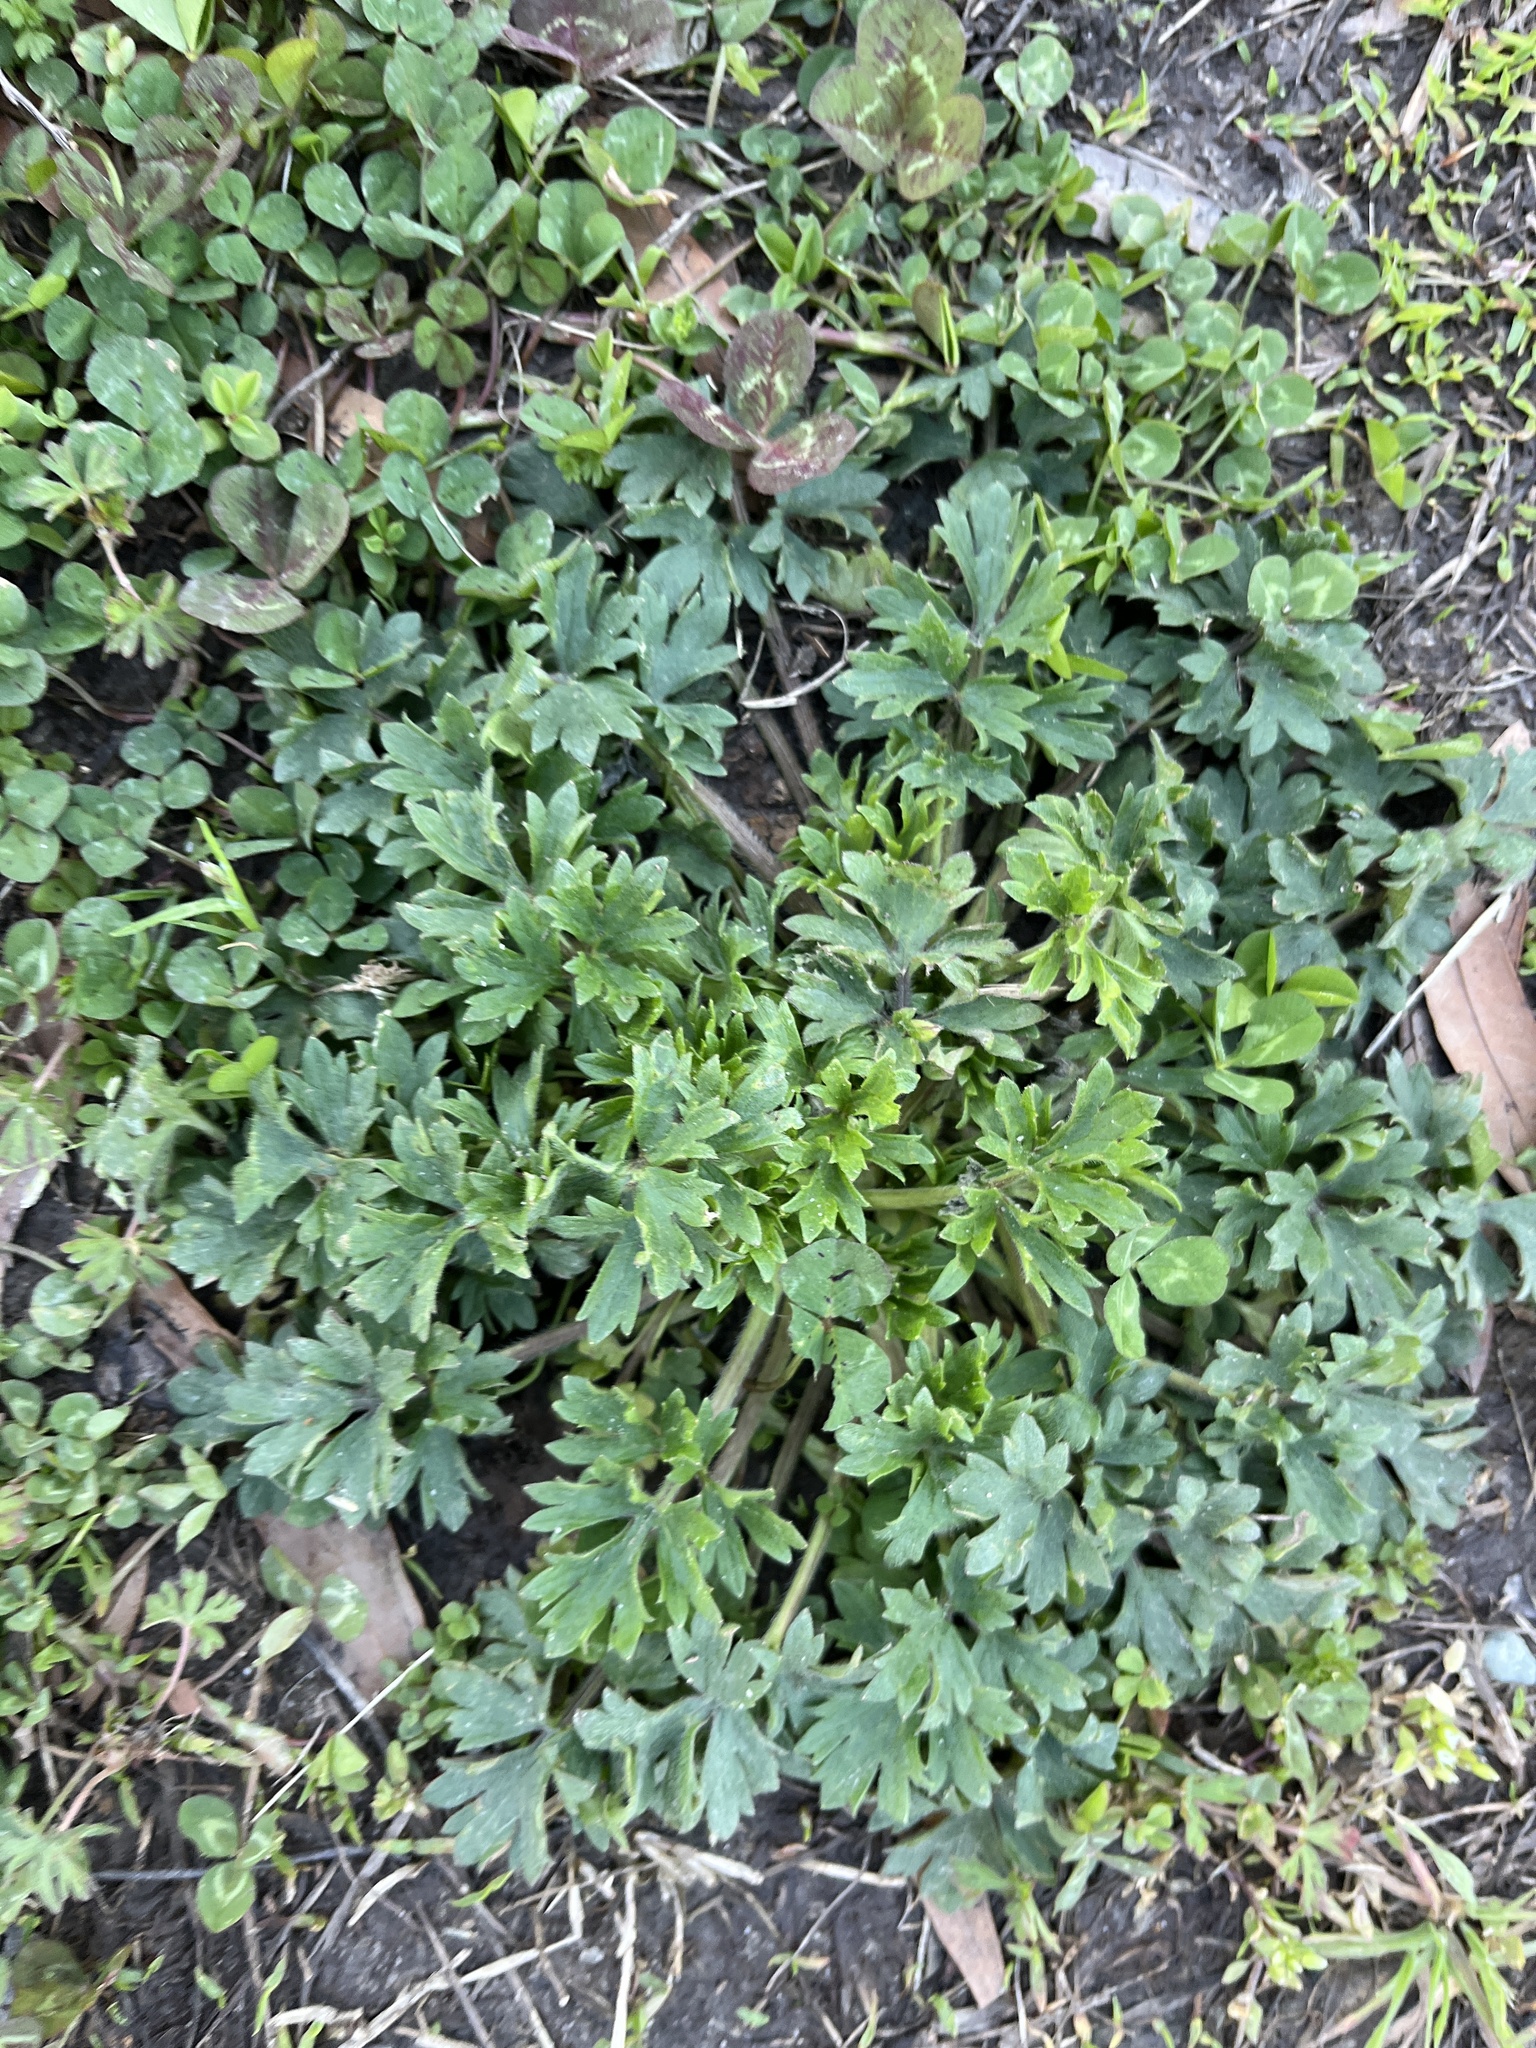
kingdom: Plantae
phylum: Tracheophyta
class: Magnoliopsida
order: Ranunculales
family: Ranunculaceae
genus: Ranunculus
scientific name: Ranunculus bulbosus
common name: Bulbous buttercup
